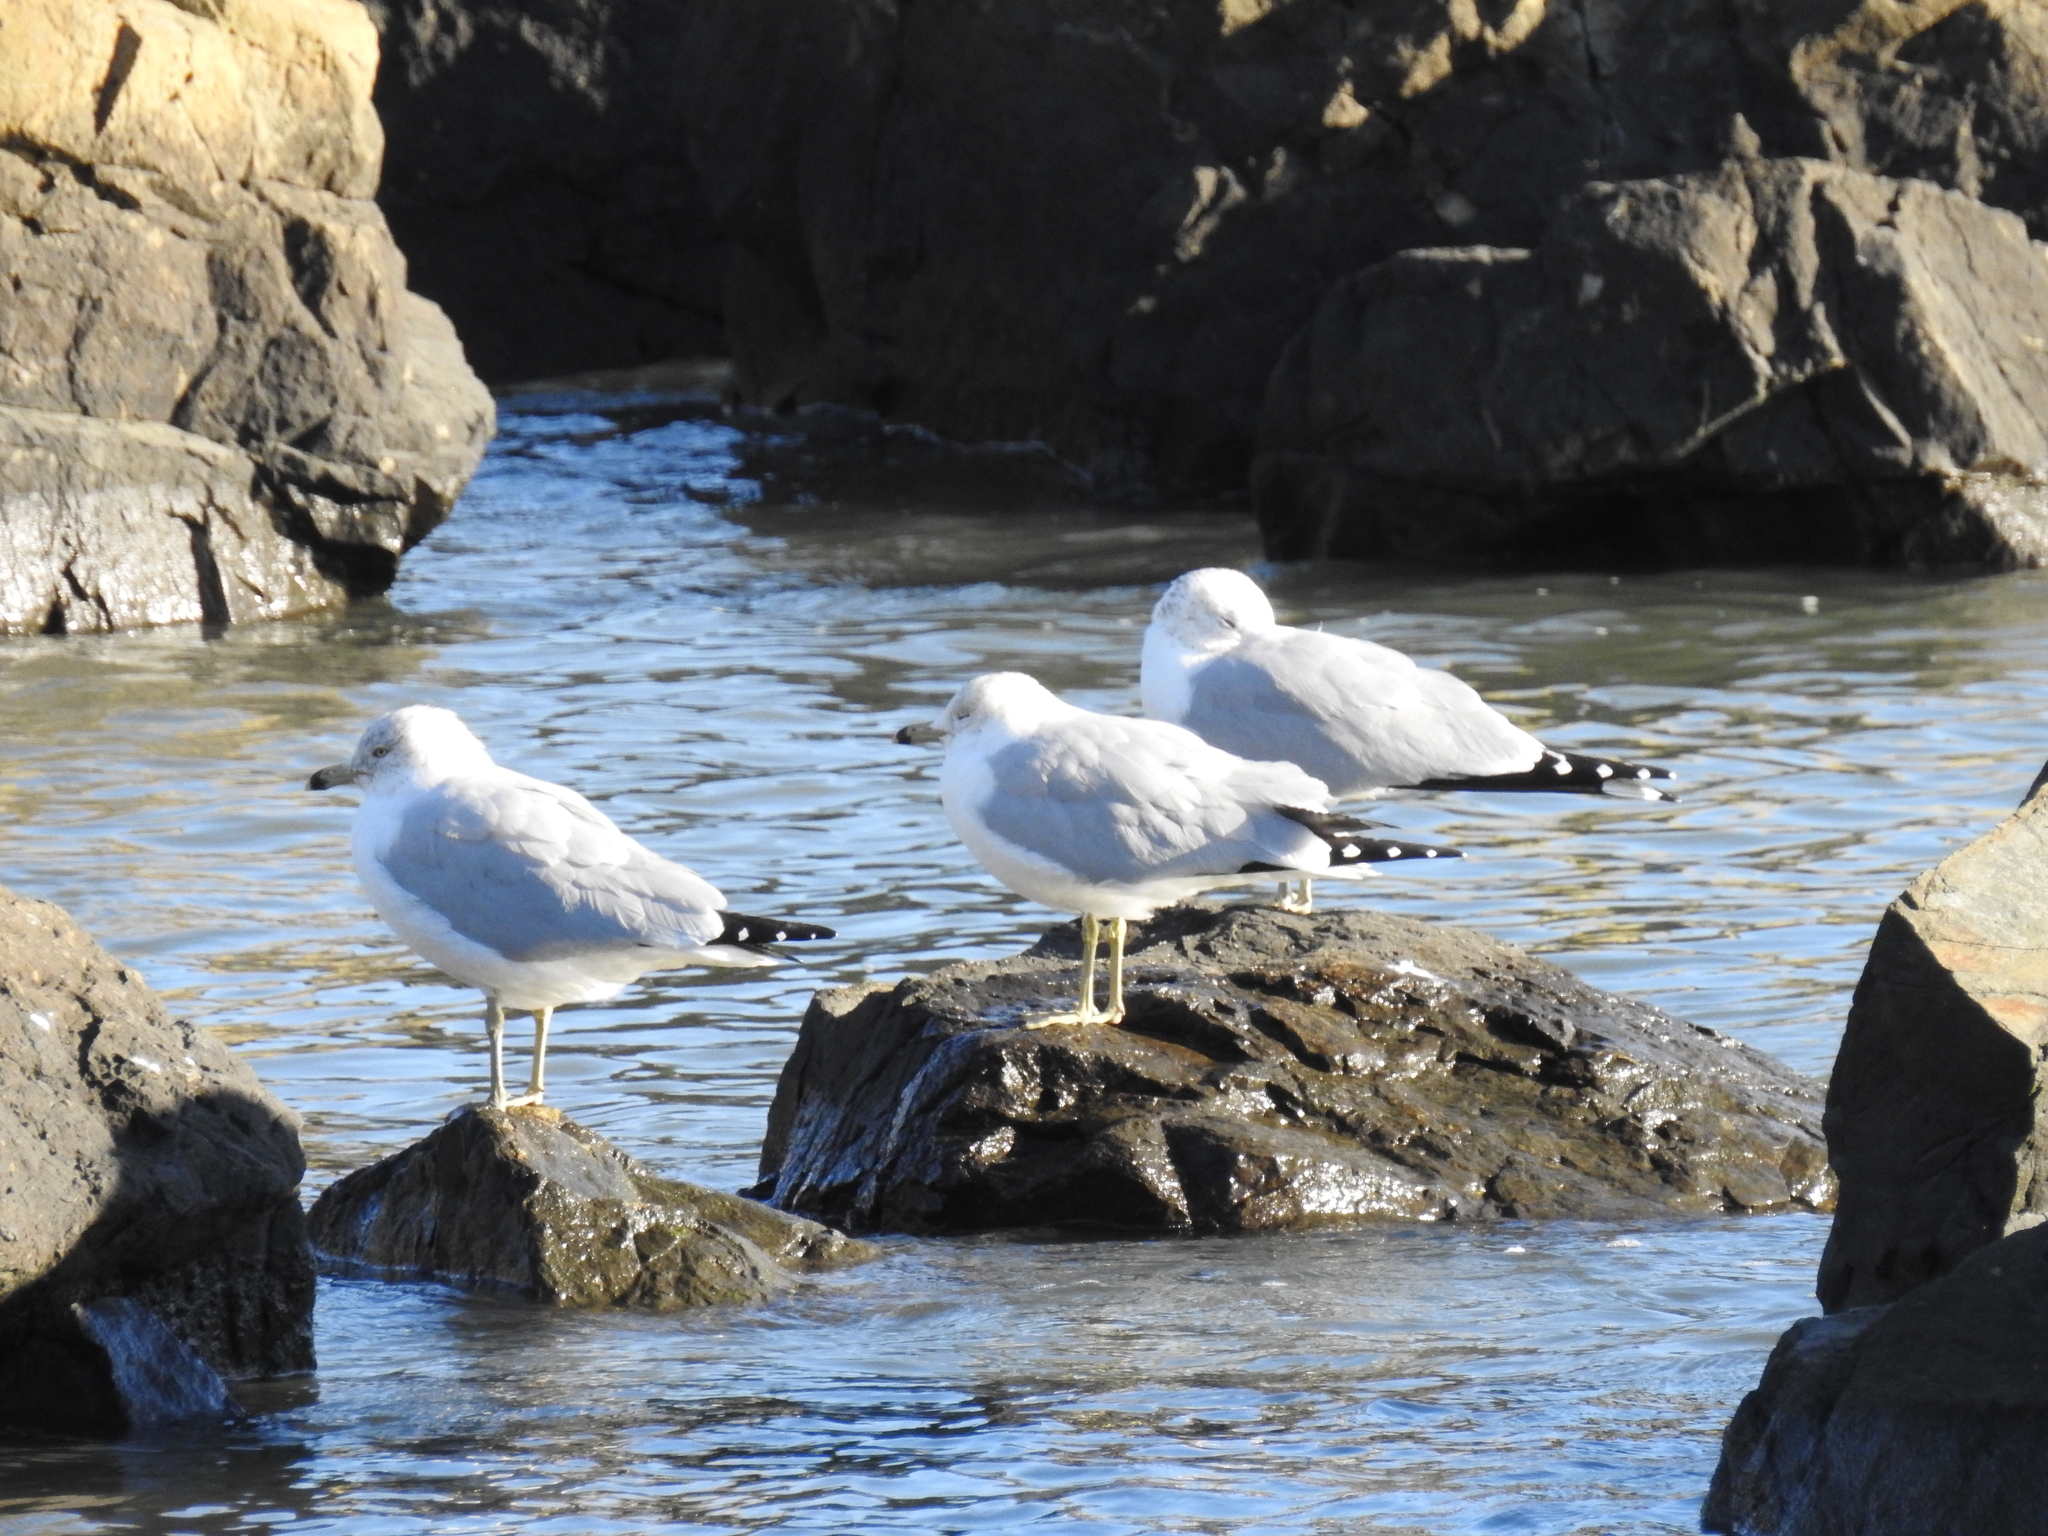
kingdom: Animalia
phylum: Chordata
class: Aves
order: Charadriiformes
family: Laridae
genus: Larus
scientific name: Larus delawarensis
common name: Ring-billed gull
